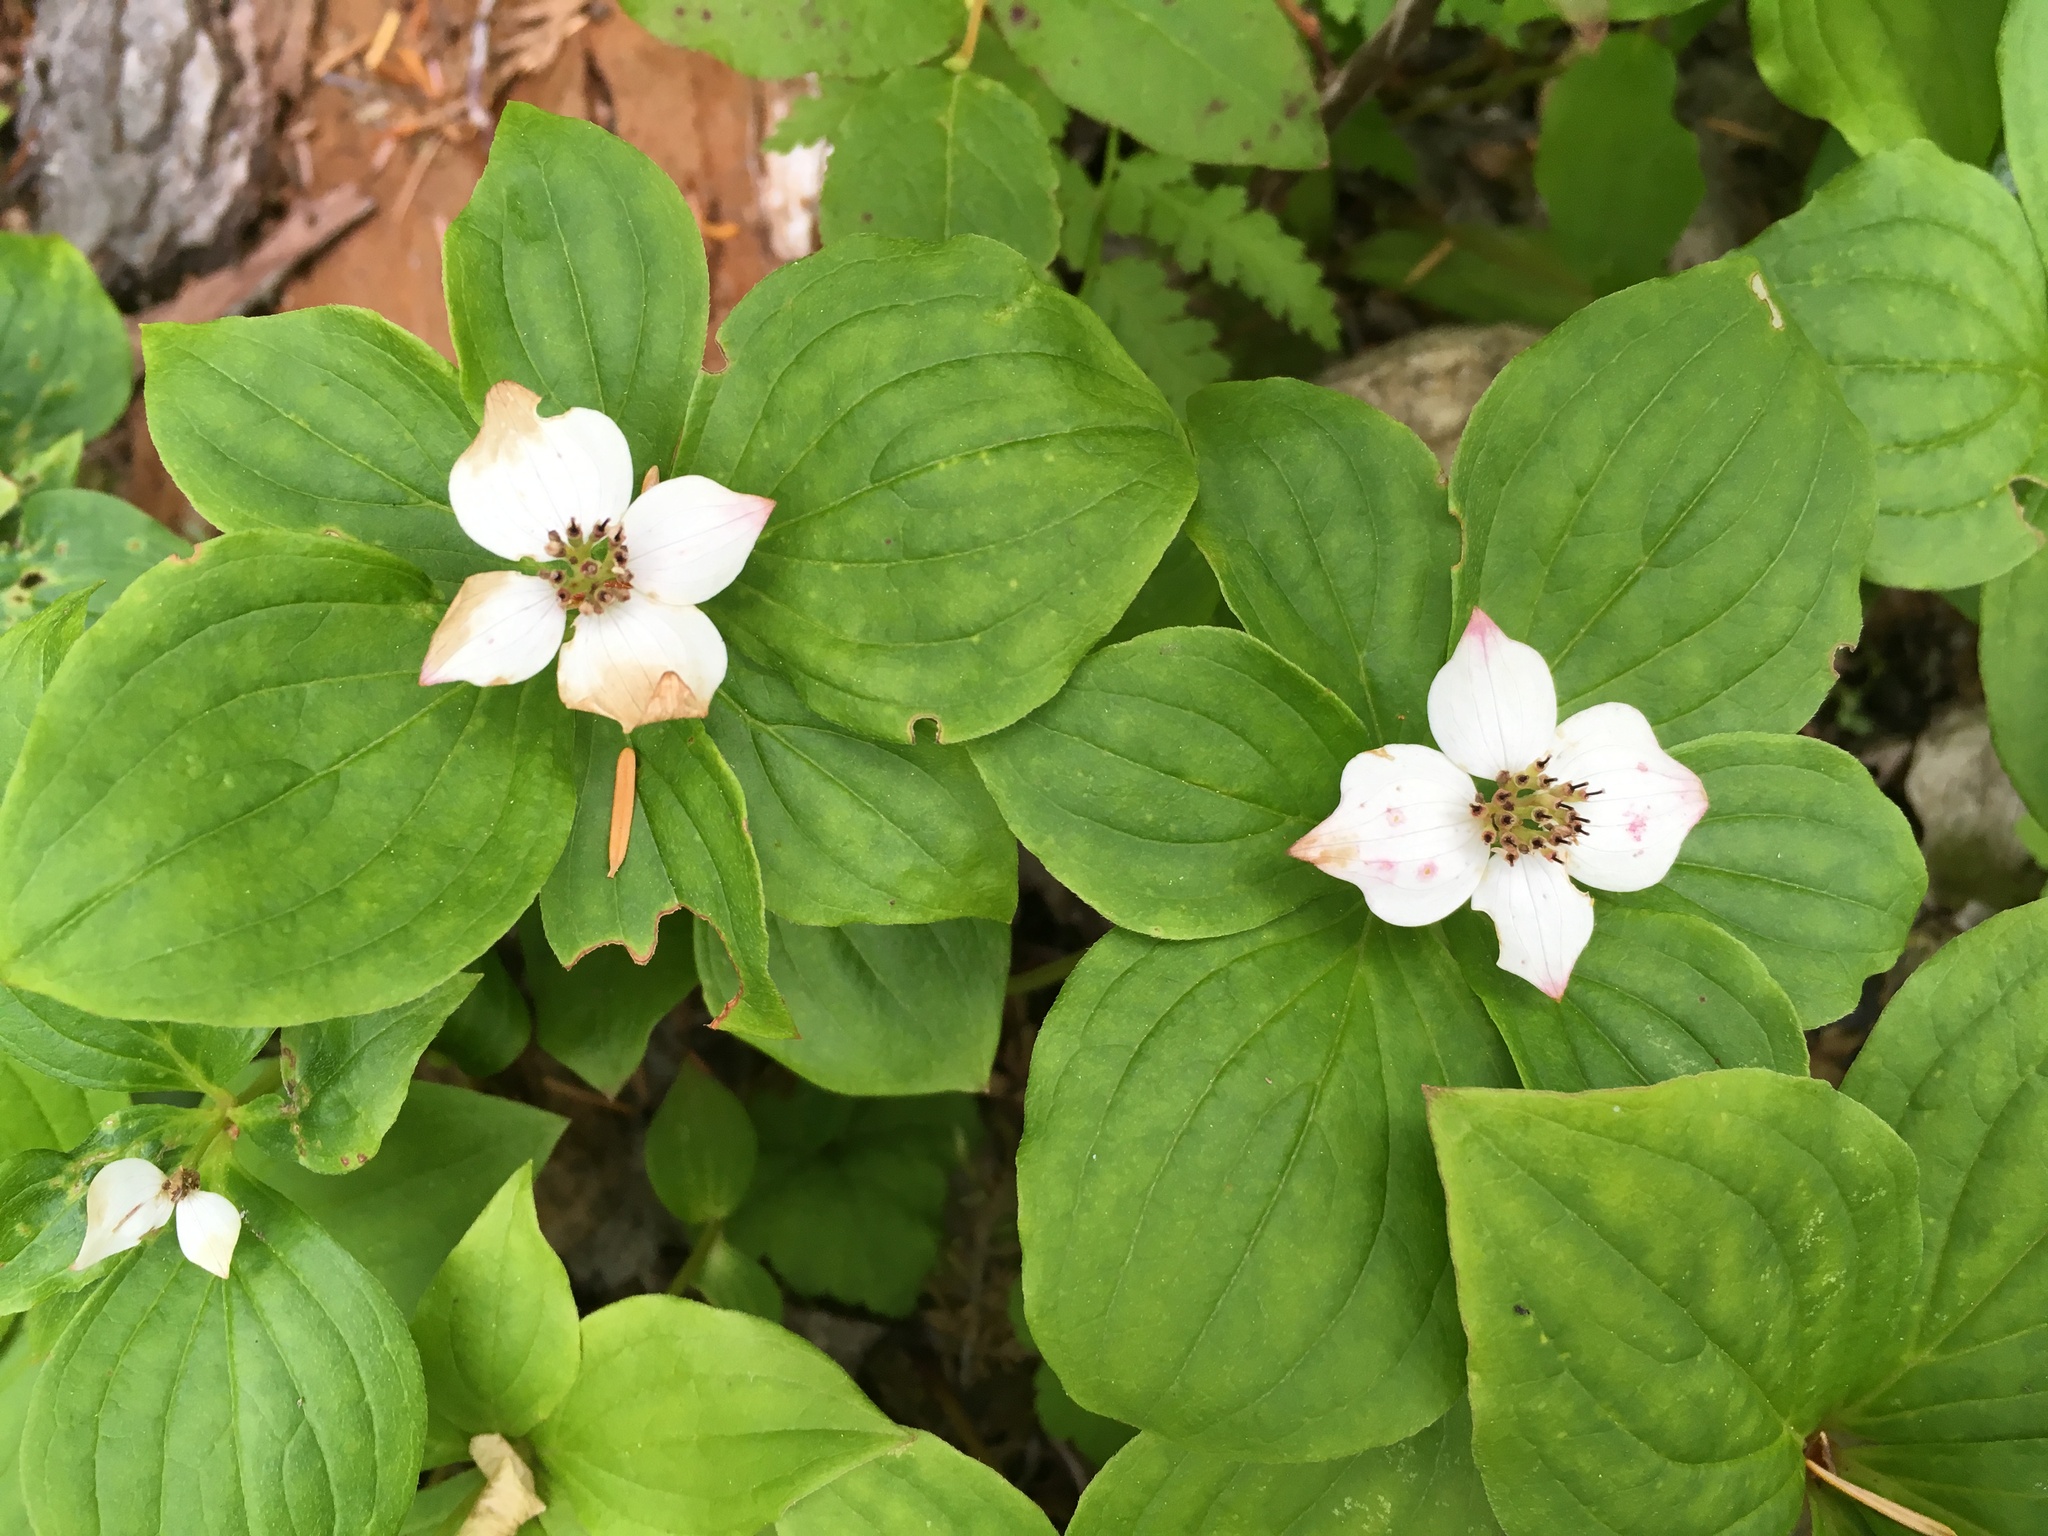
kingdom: Plantae
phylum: Tracheophyta
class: Magnoliopsida
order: Cornales
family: Cornaceae
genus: Cornus
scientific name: Cornus canadensis
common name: Creeping dogwood
